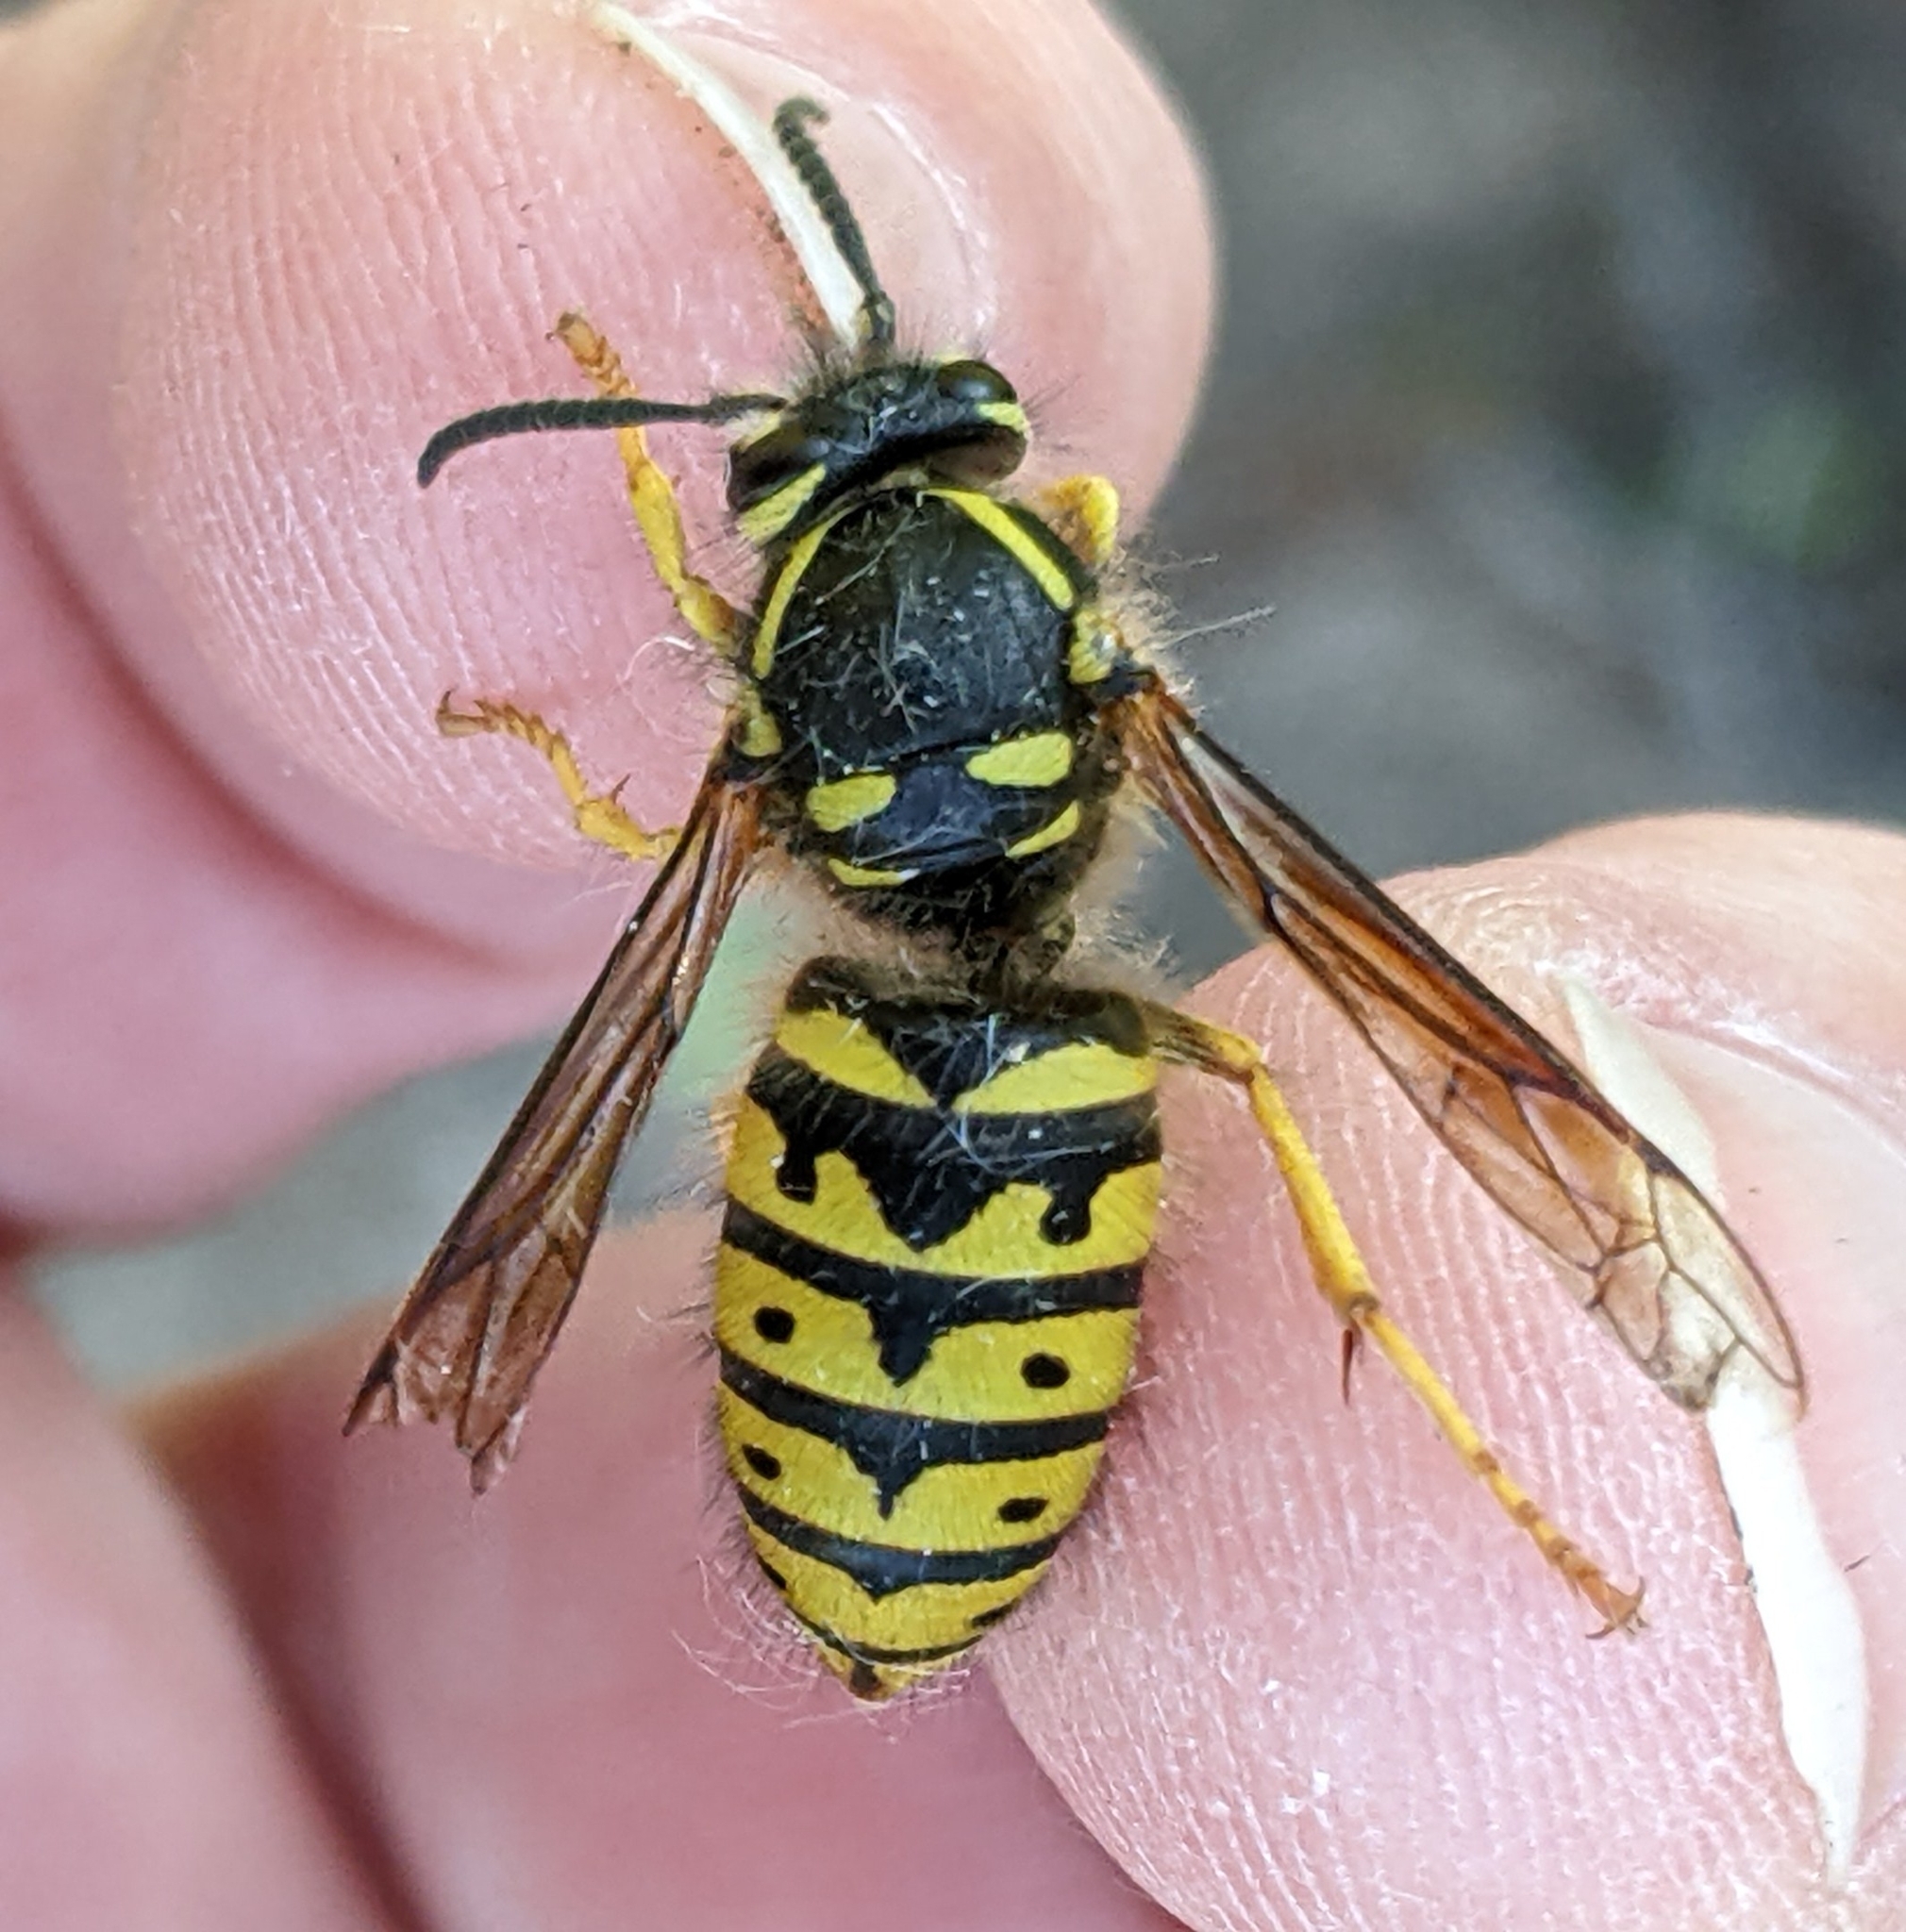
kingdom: Animalia
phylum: Arthropoda
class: Insecta
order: Hymenoptera
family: Vespidae
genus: Dolichovespula
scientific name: Dolichovespula arenaria
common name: Aerial yellowjacket
